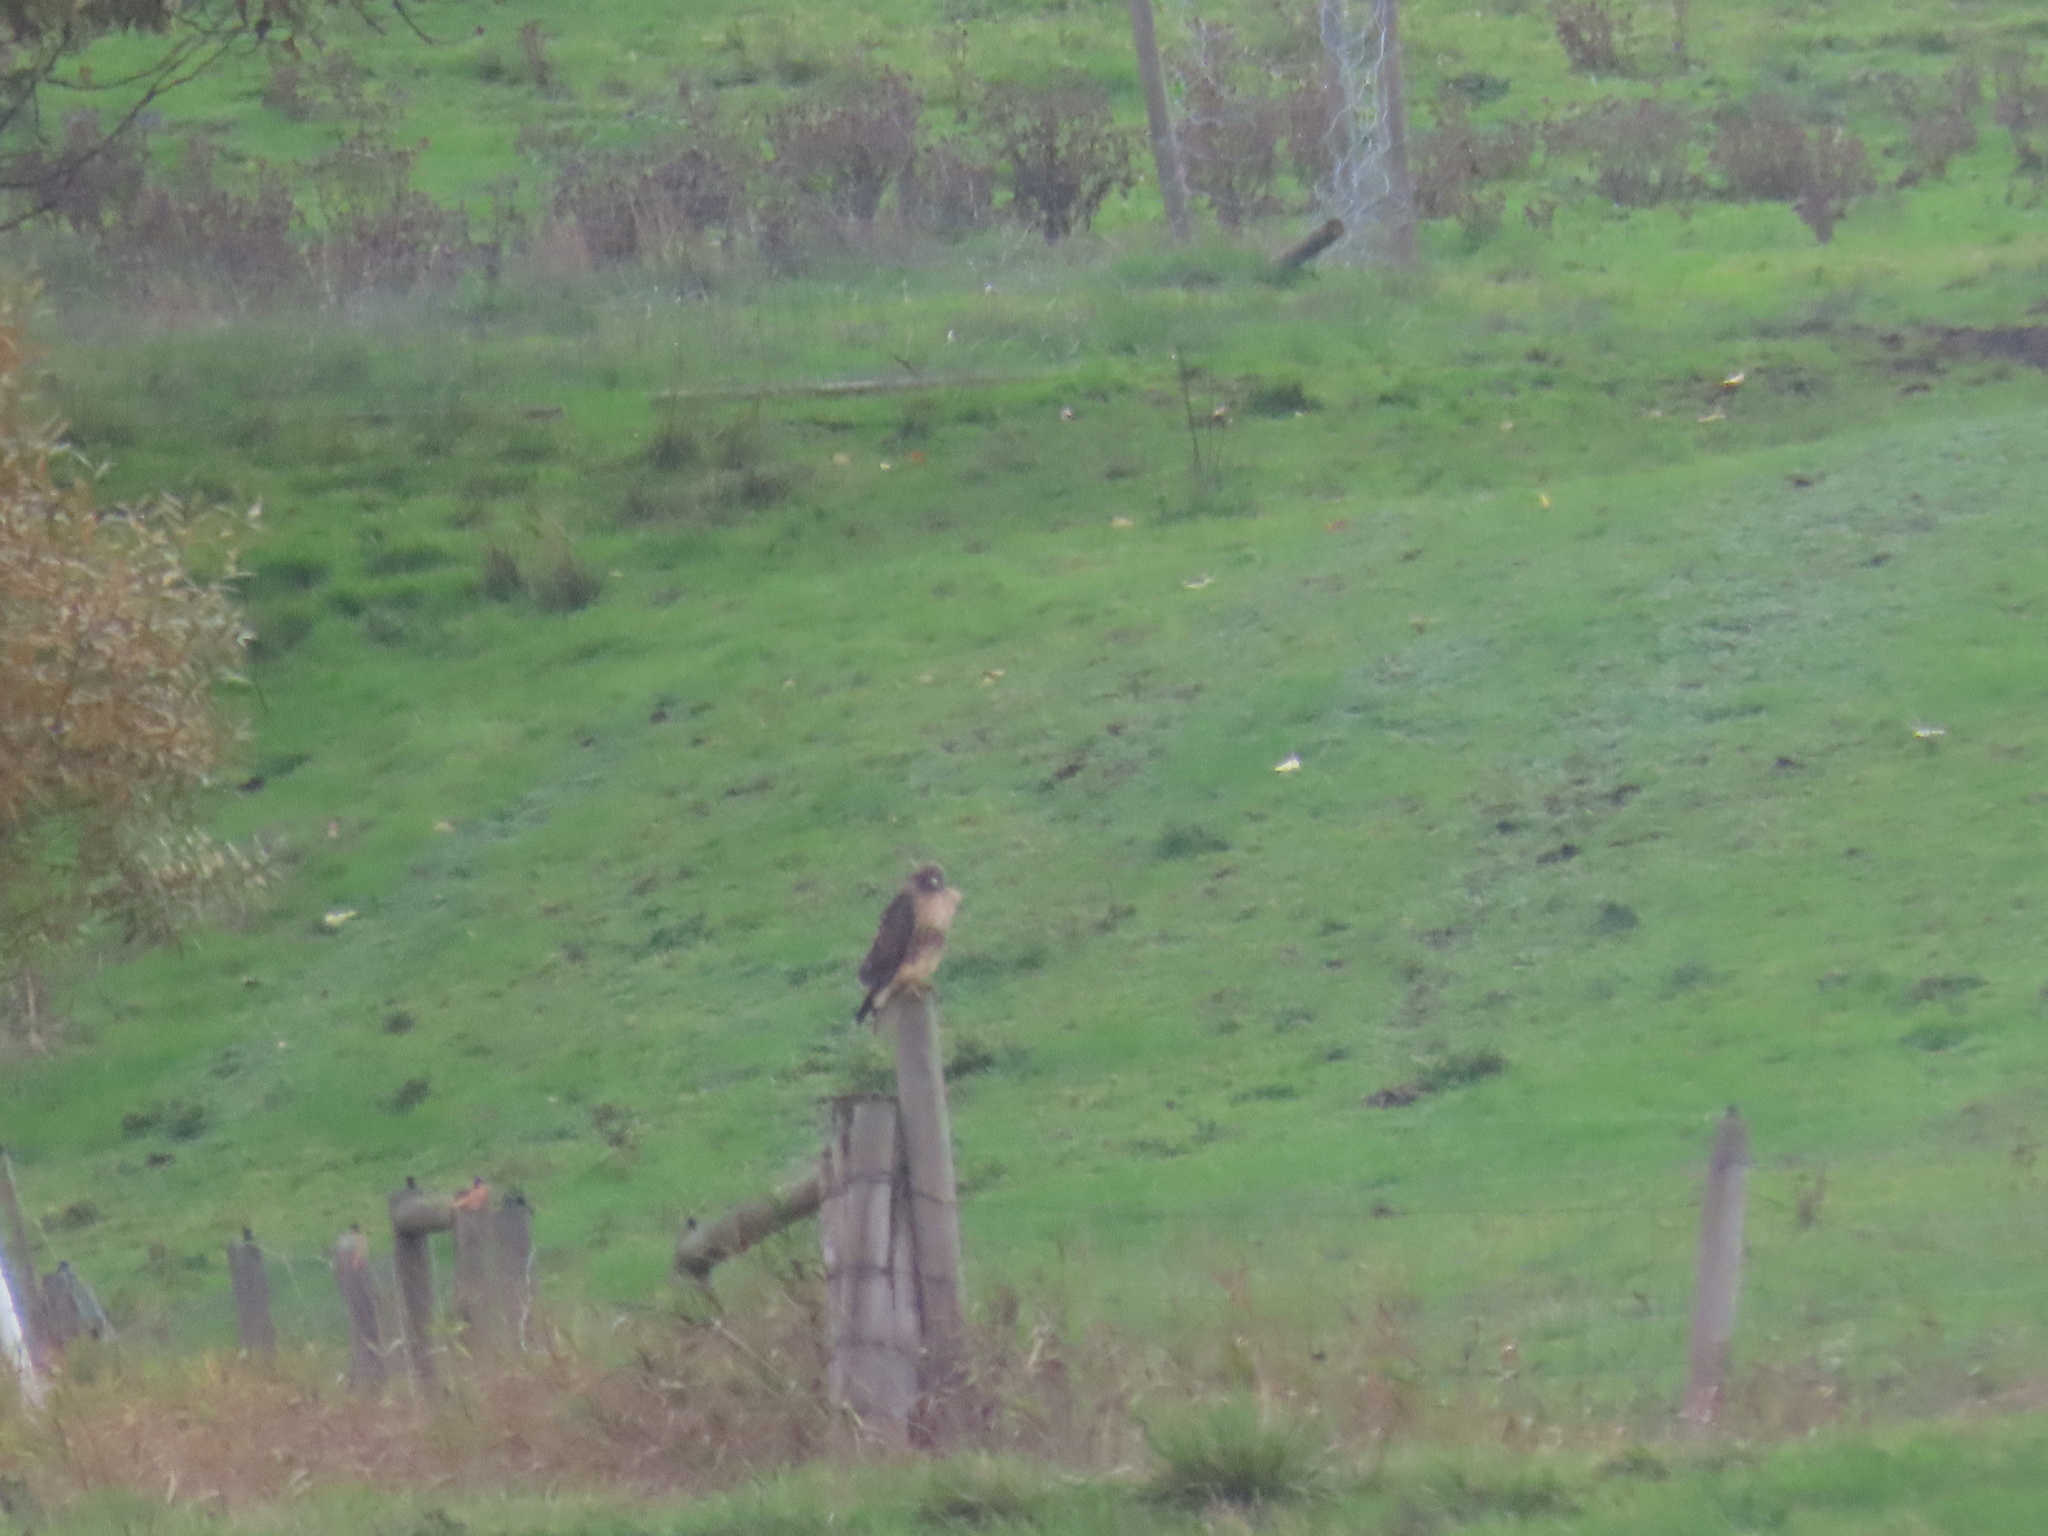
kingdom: Animalia
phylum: Chordata
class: Aves
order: Accipitriformes
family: Accipitridae
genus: Buteo
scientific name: Buteo jamaicensis
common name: Red-tailed hawk
